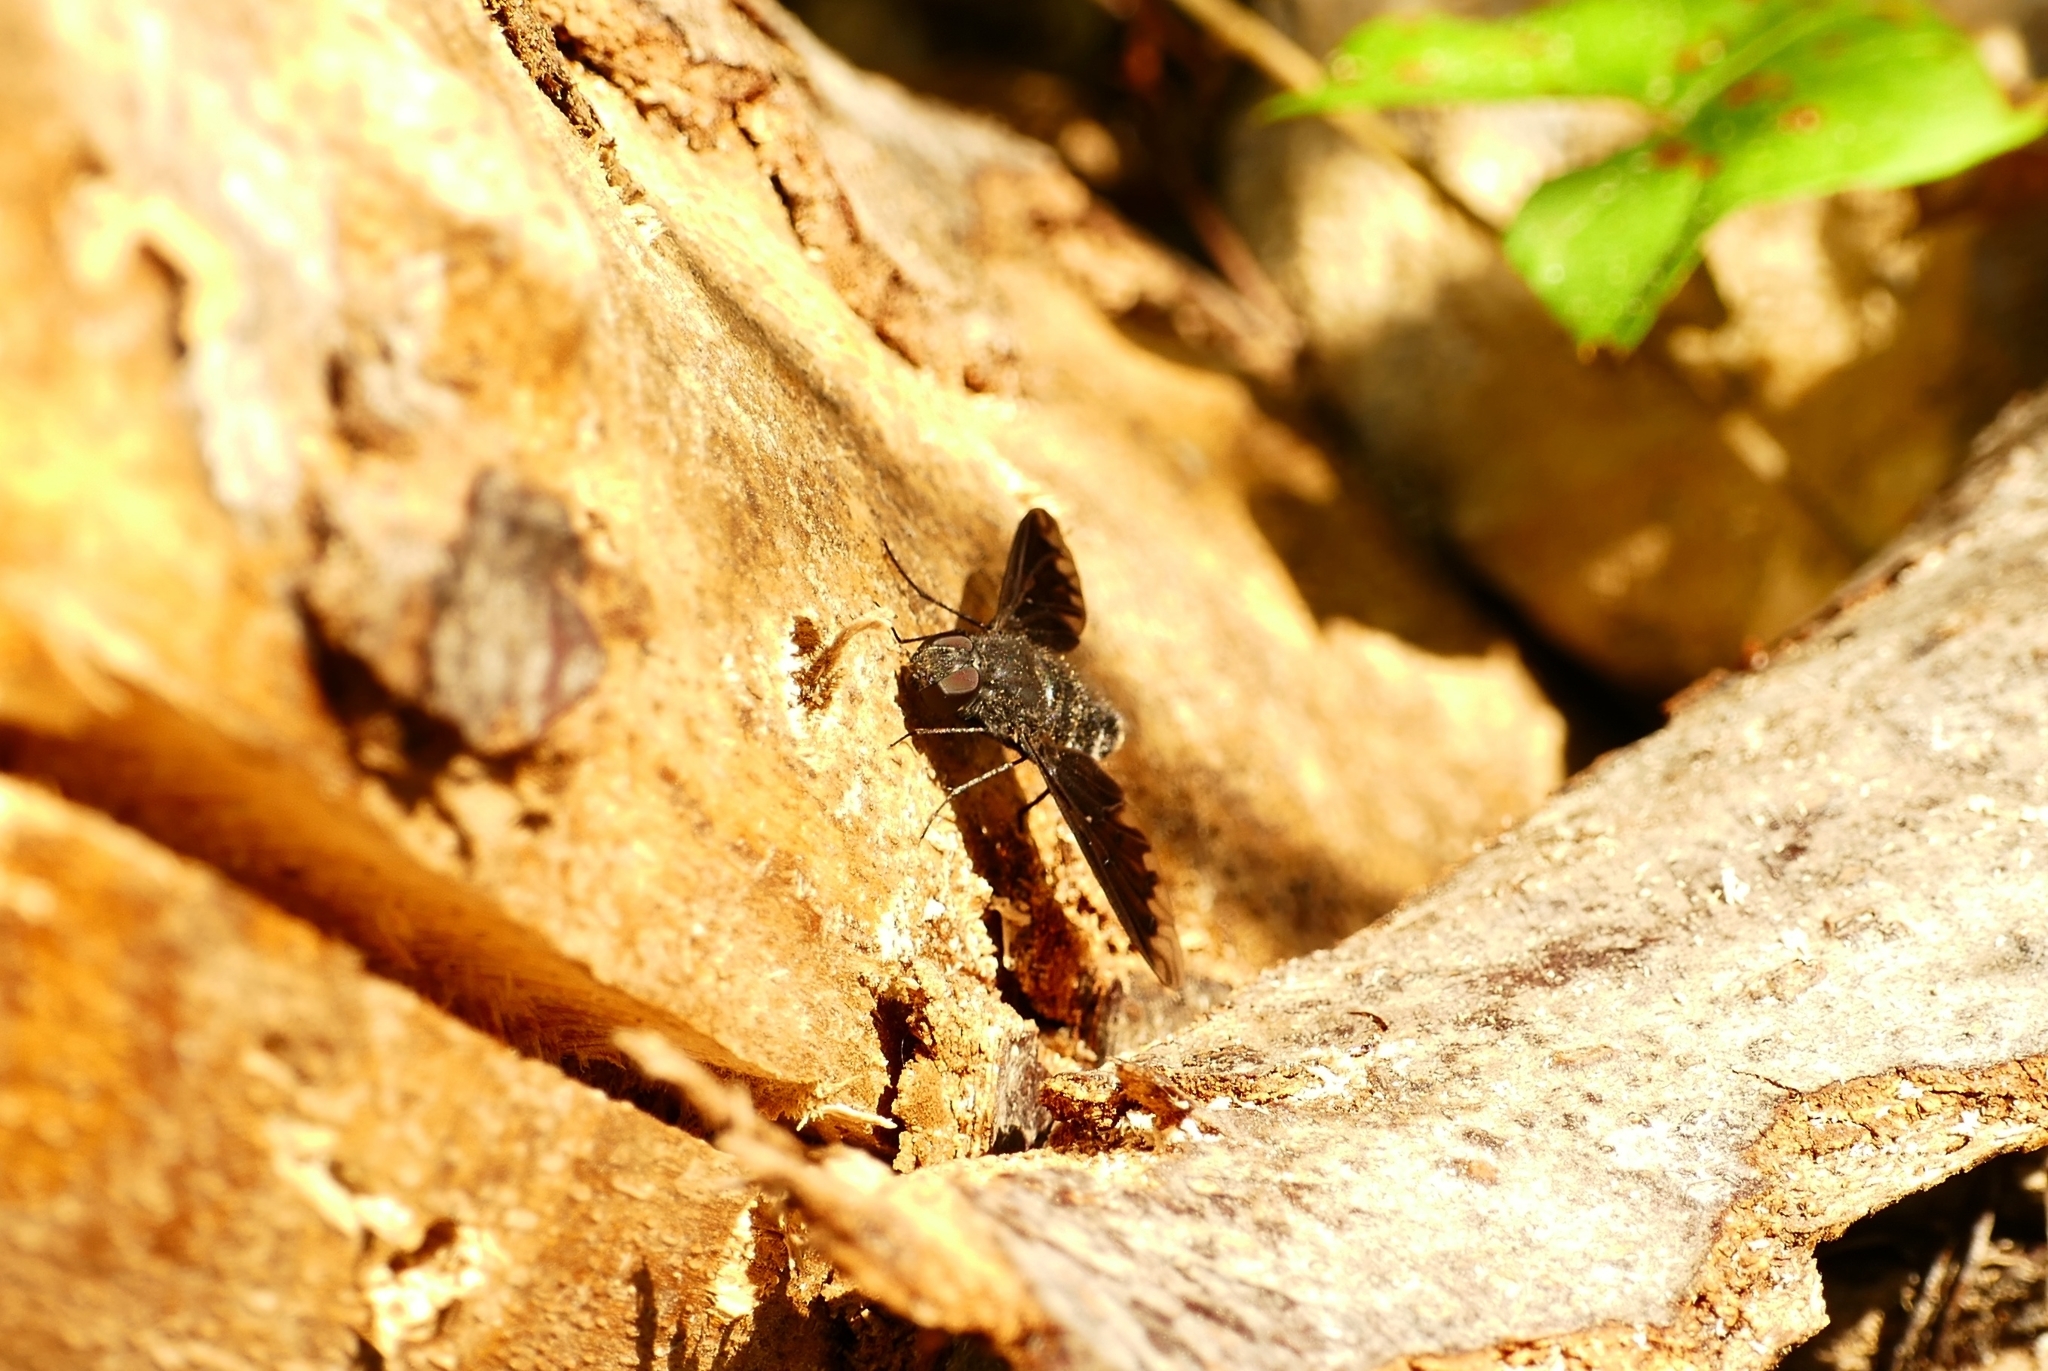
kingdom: Animalia
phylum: Arthropoda
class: Insecta
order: Diptera
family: Bombyliidae
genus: Anthrax
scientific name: Anthrax anthrax
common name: Anthracite bee-fly
